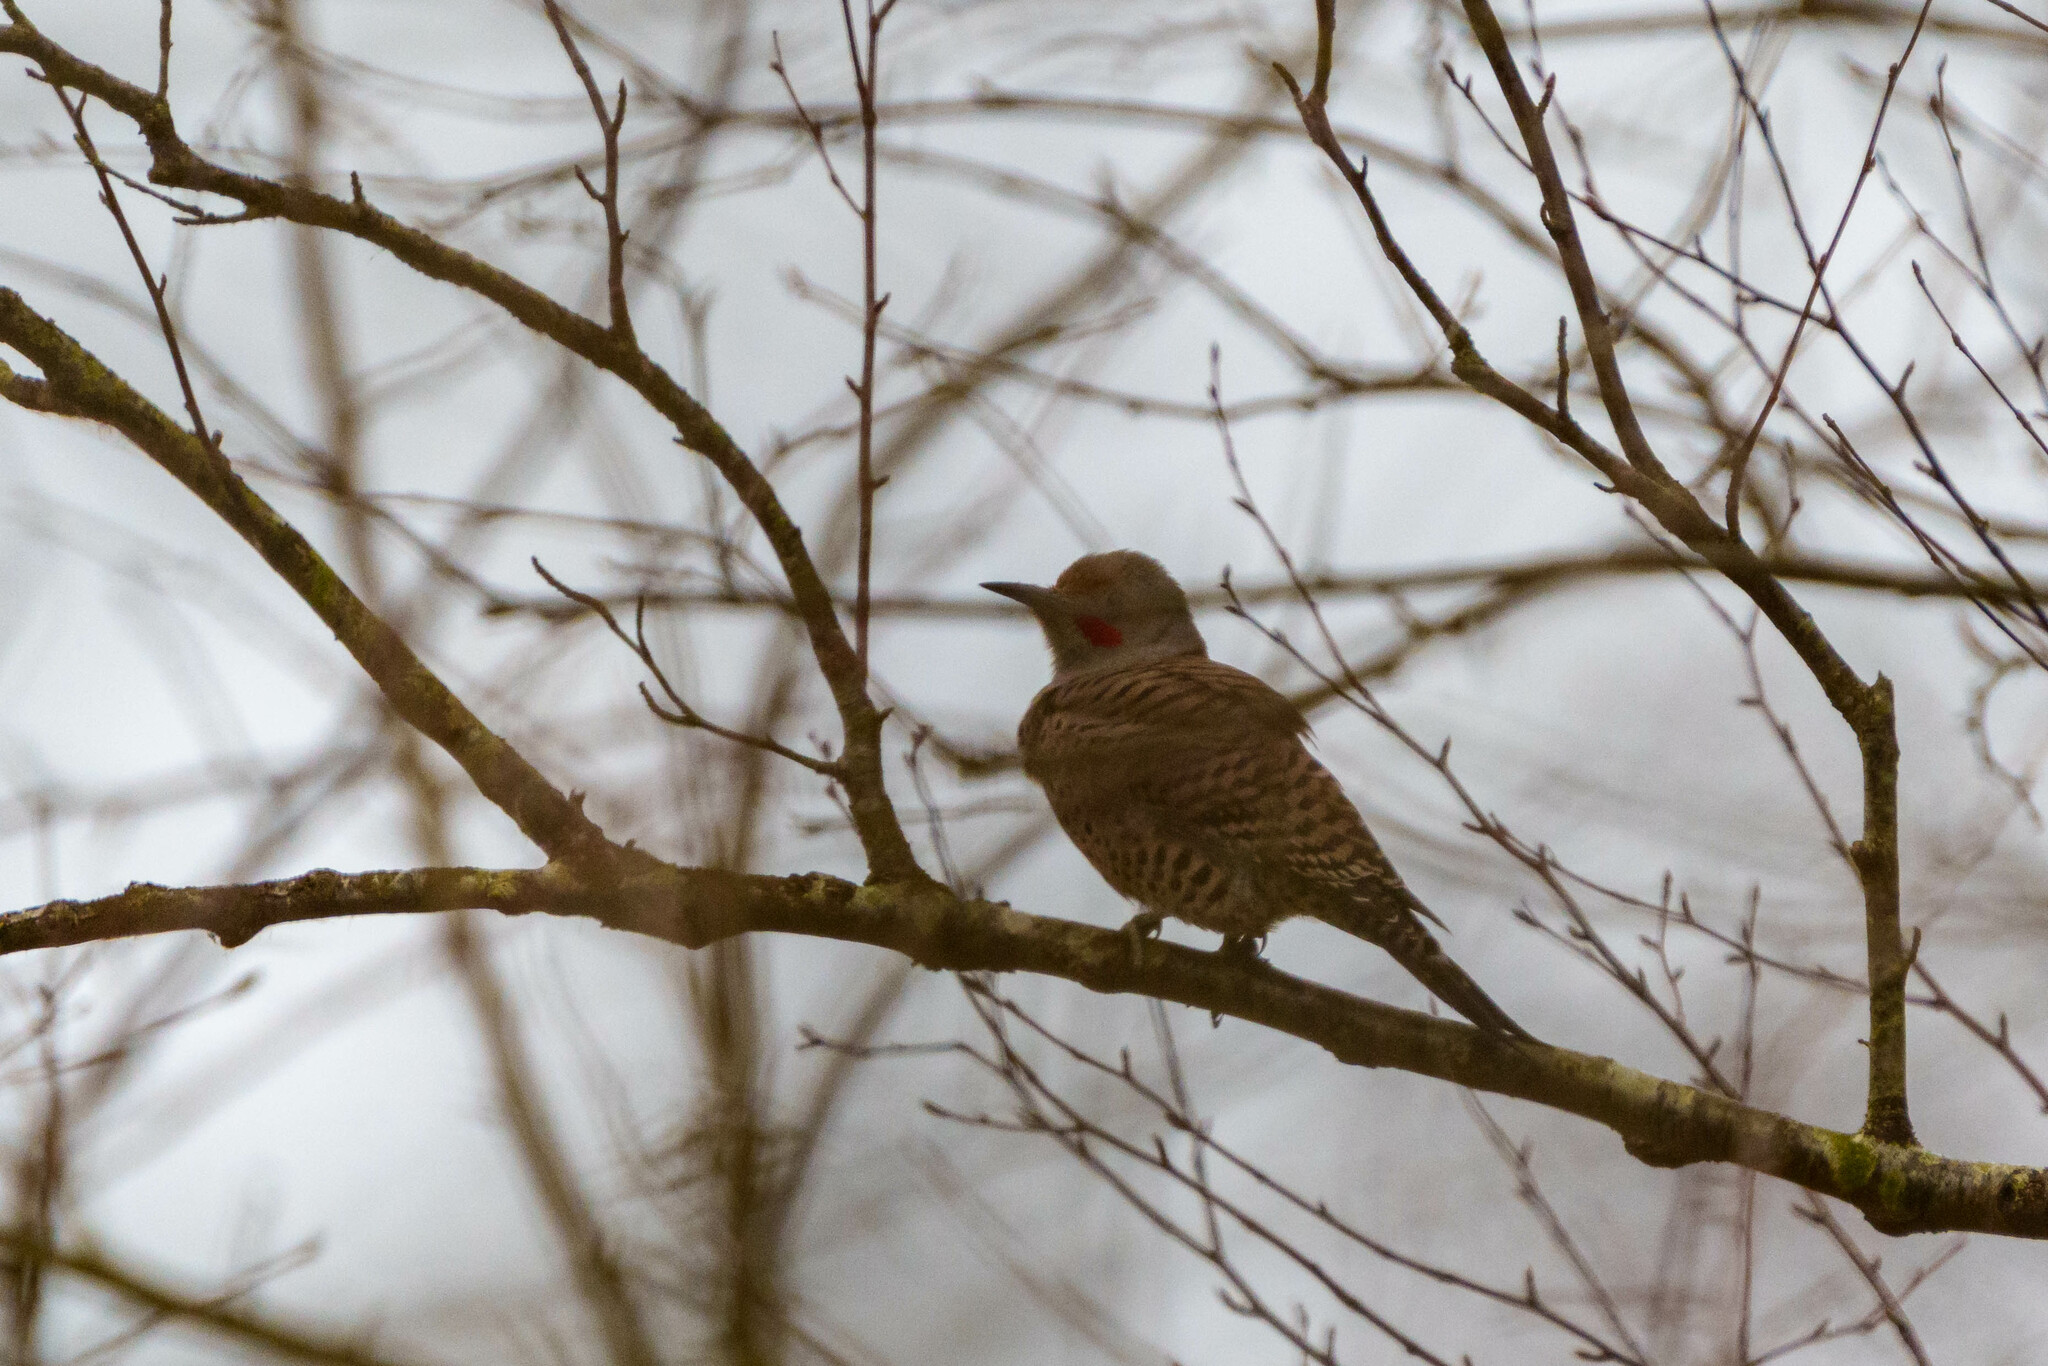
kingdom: Animalia
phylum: Chordata
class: Aves
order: Piciformes
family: Picidae
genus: Colaptes
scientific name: Colaptes auratus
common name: Northern flicker
